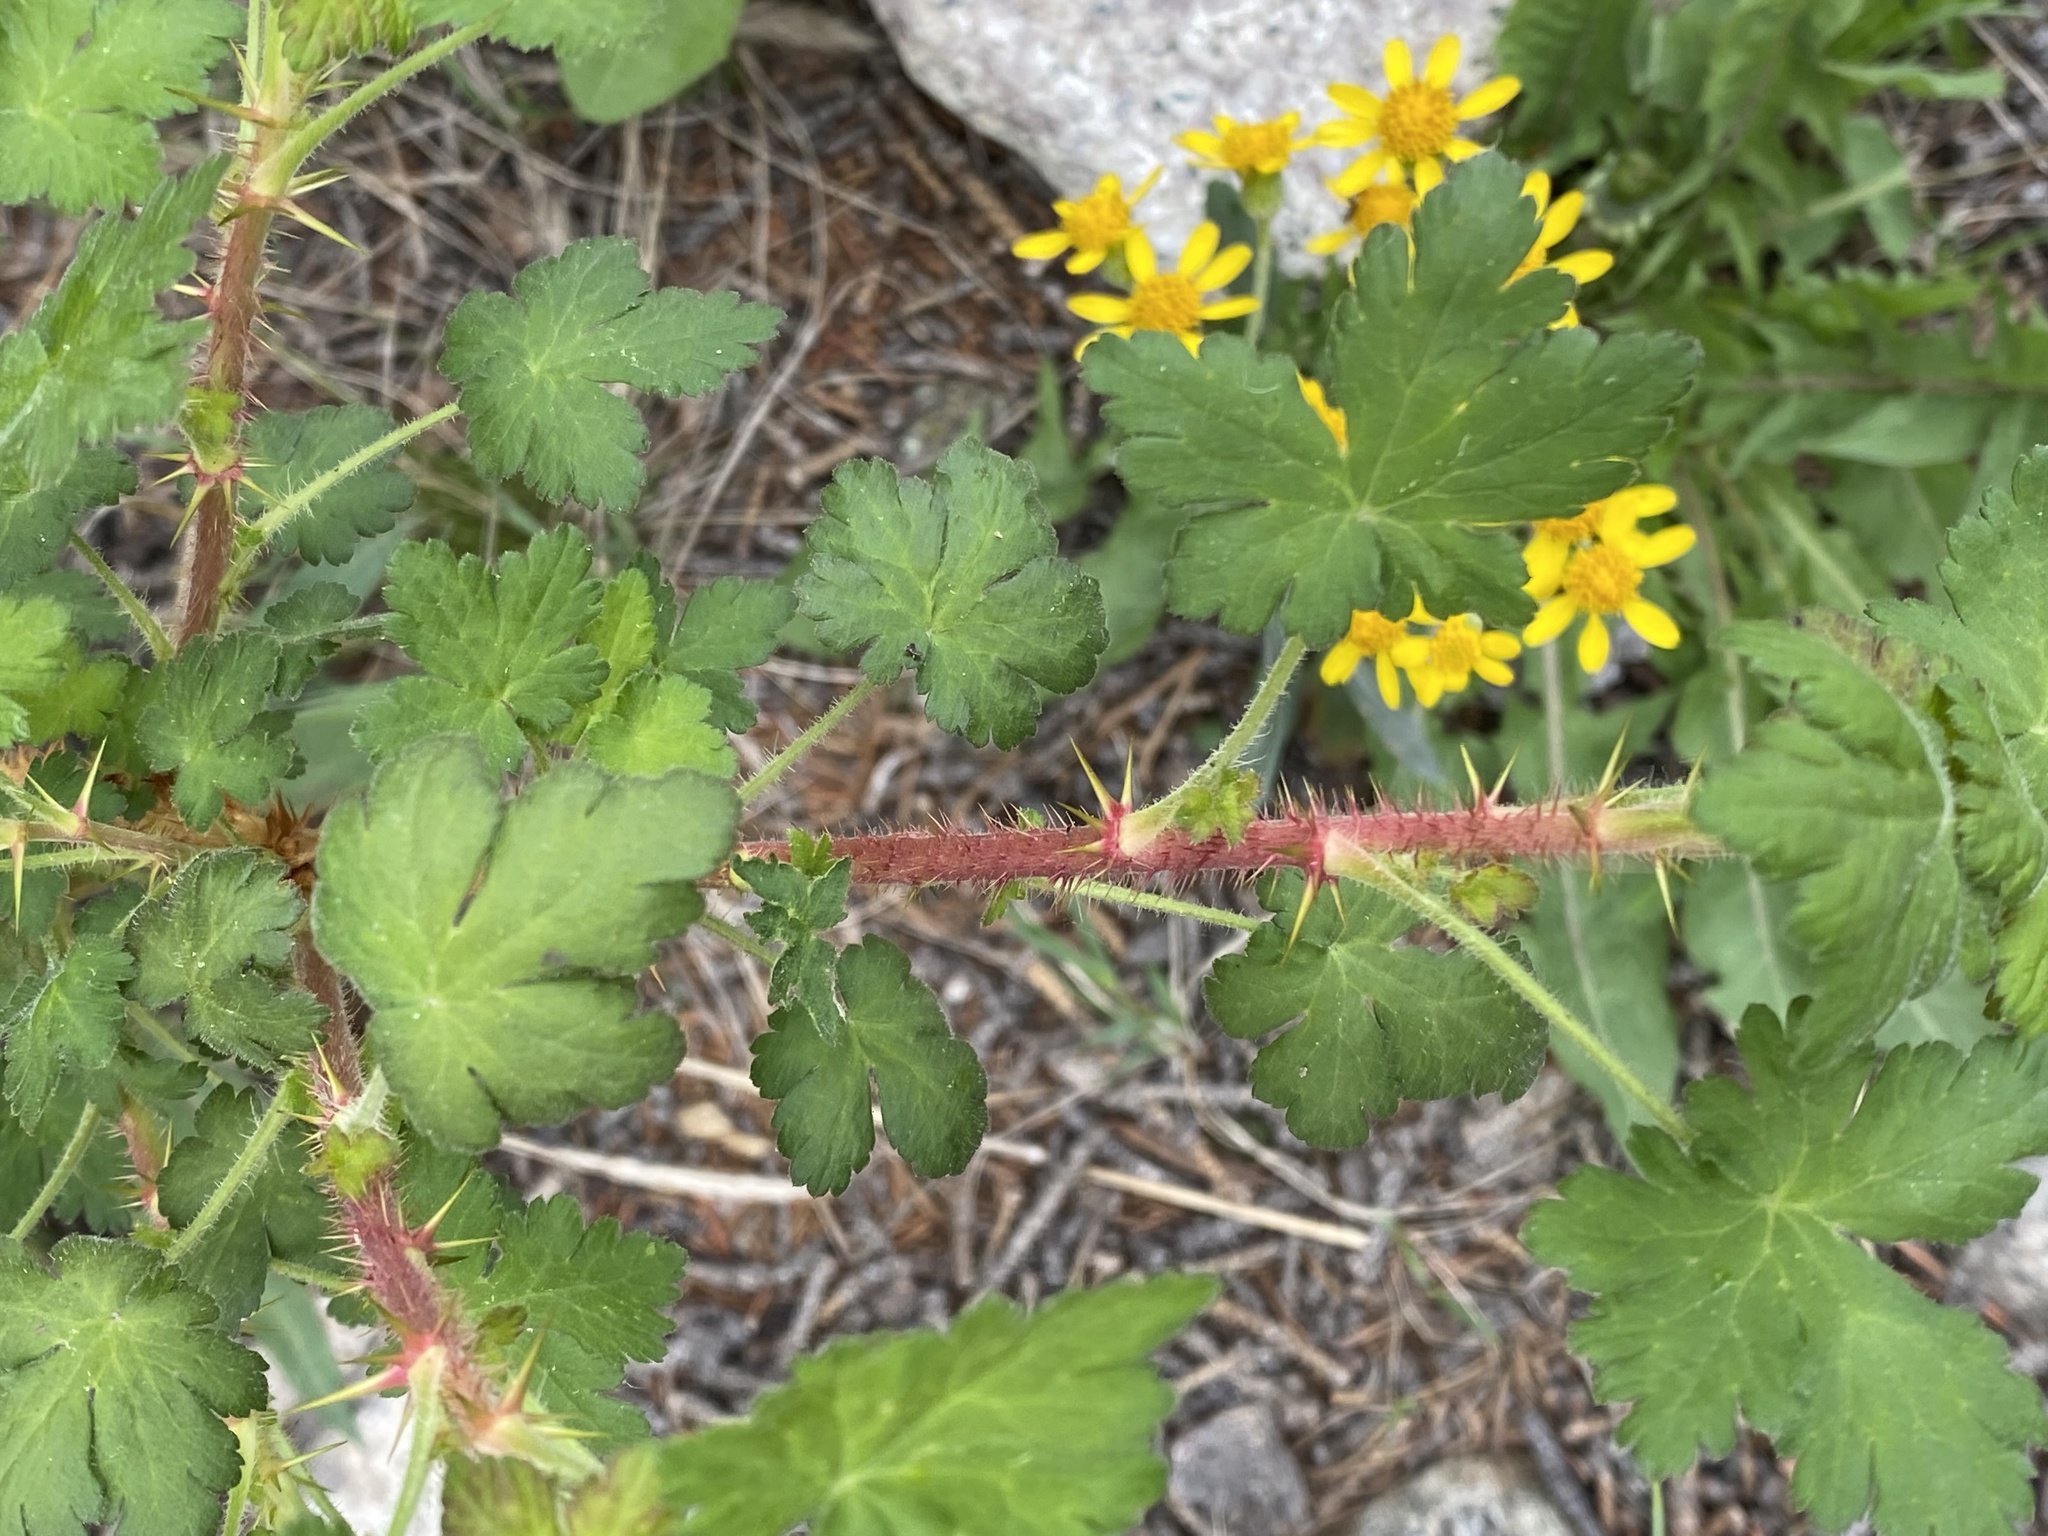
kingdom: Plantae
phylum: Tracheophyta
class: Magnoliopsida
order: Saxifragales
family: Grossulariaceae
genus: Ribes
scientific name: Ribes montigenum
